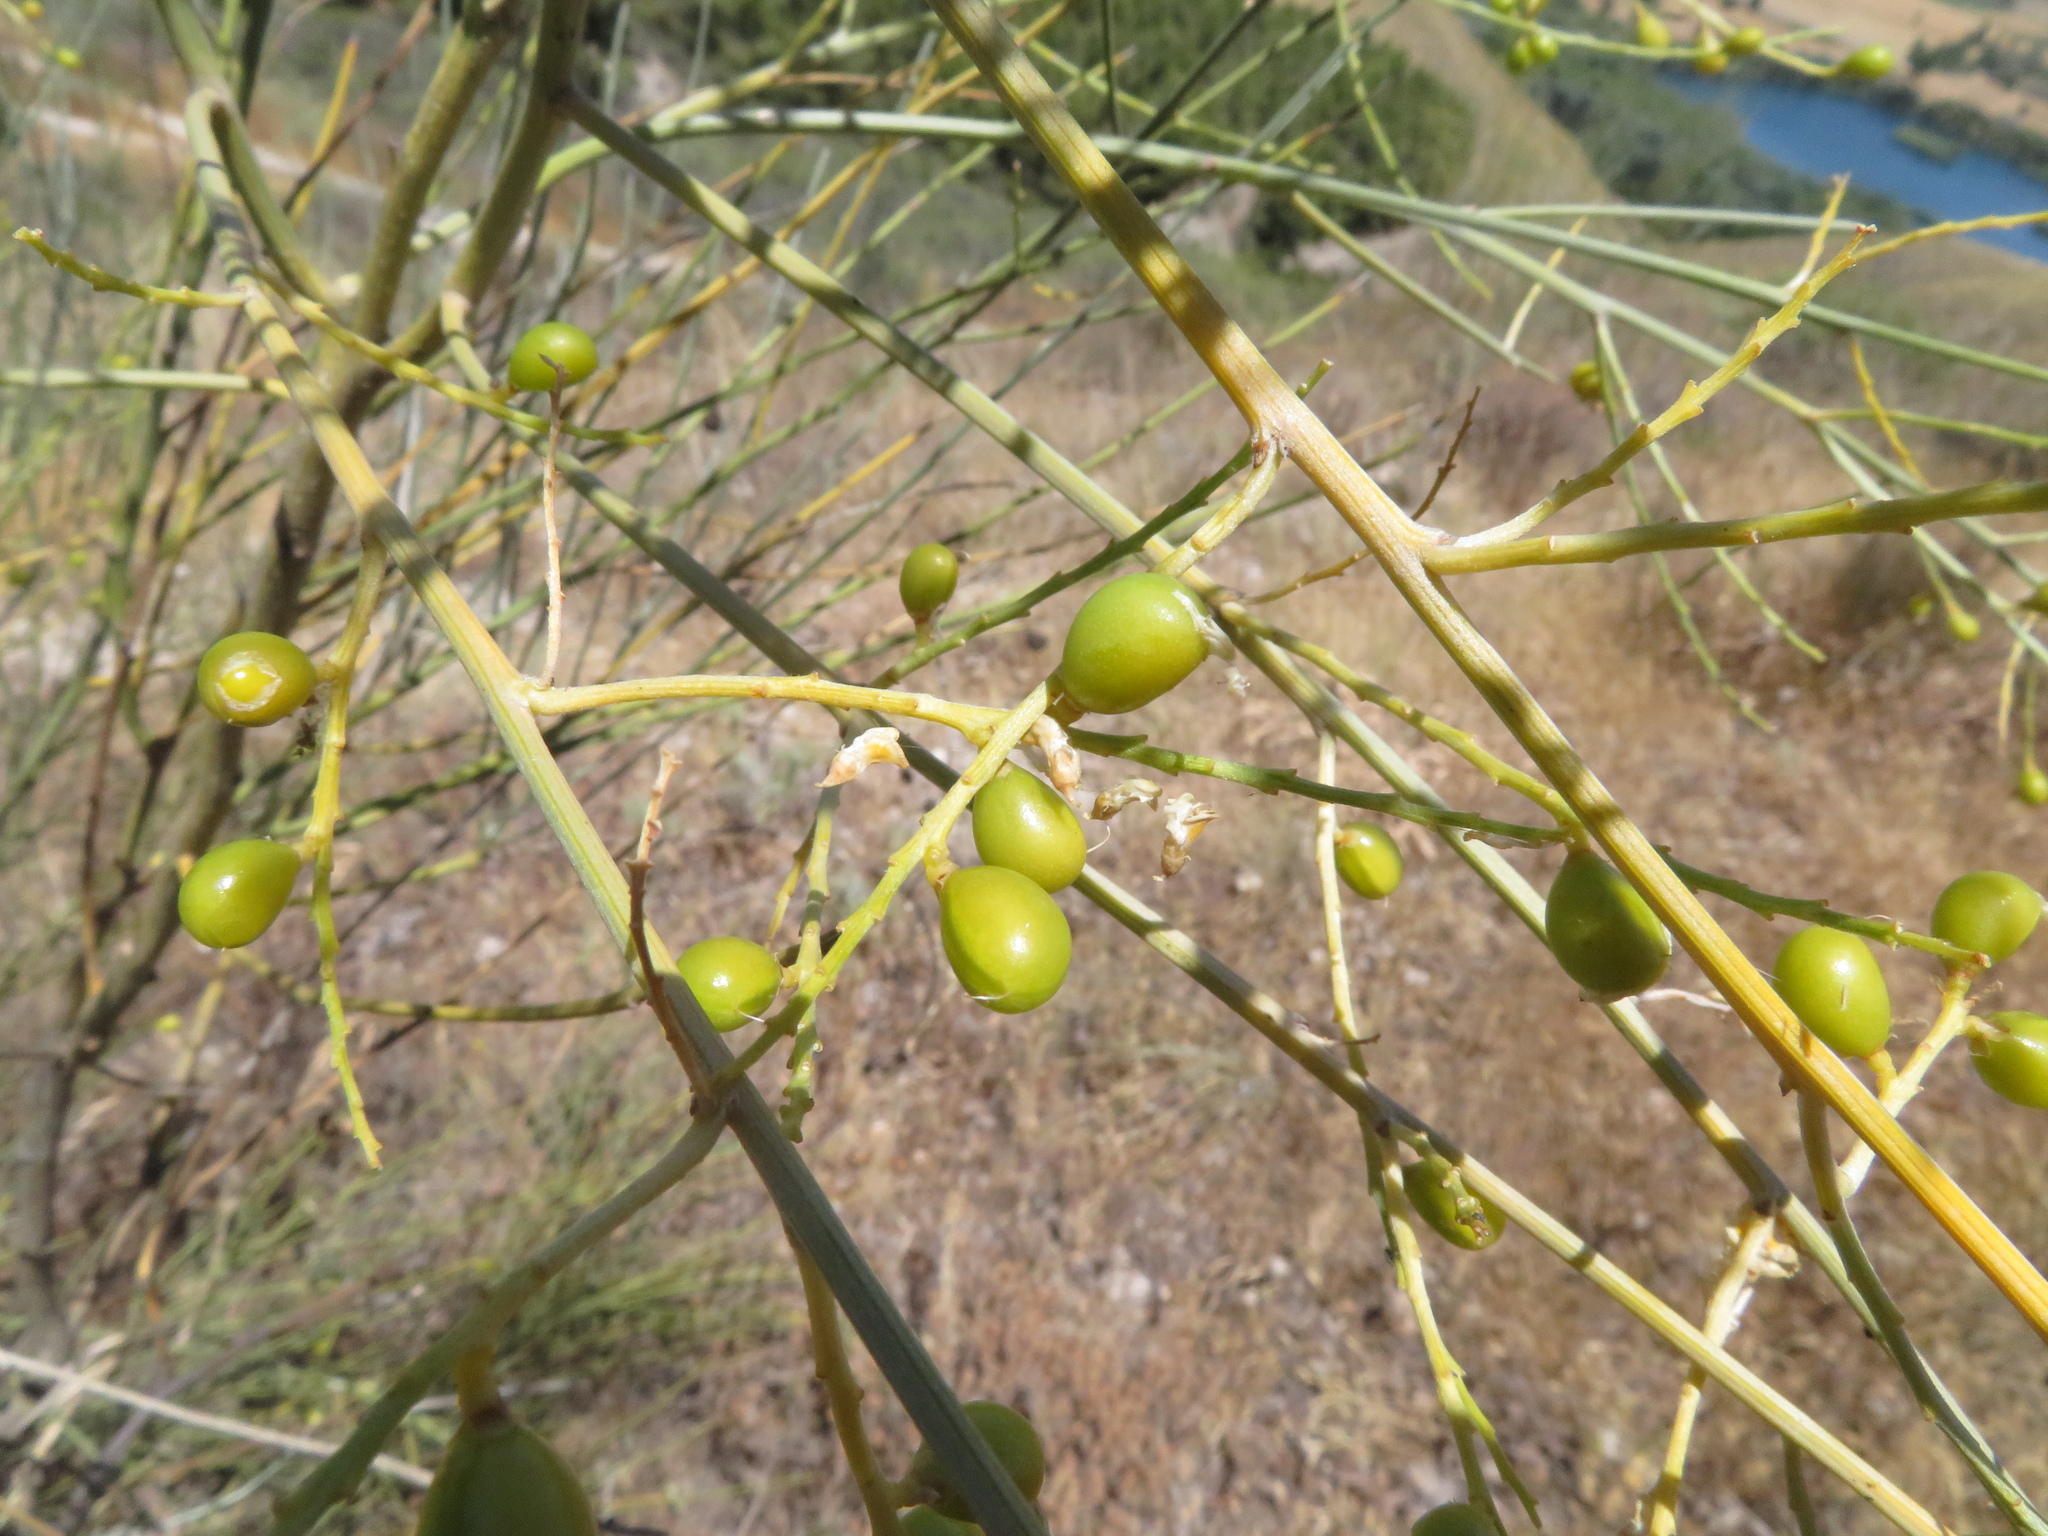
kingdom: Plantae
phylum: Tracheophyta
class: Magnoliopsida
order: Fabales
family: Fabaceae
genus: Retama
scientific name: Retama sphaerocarpa
